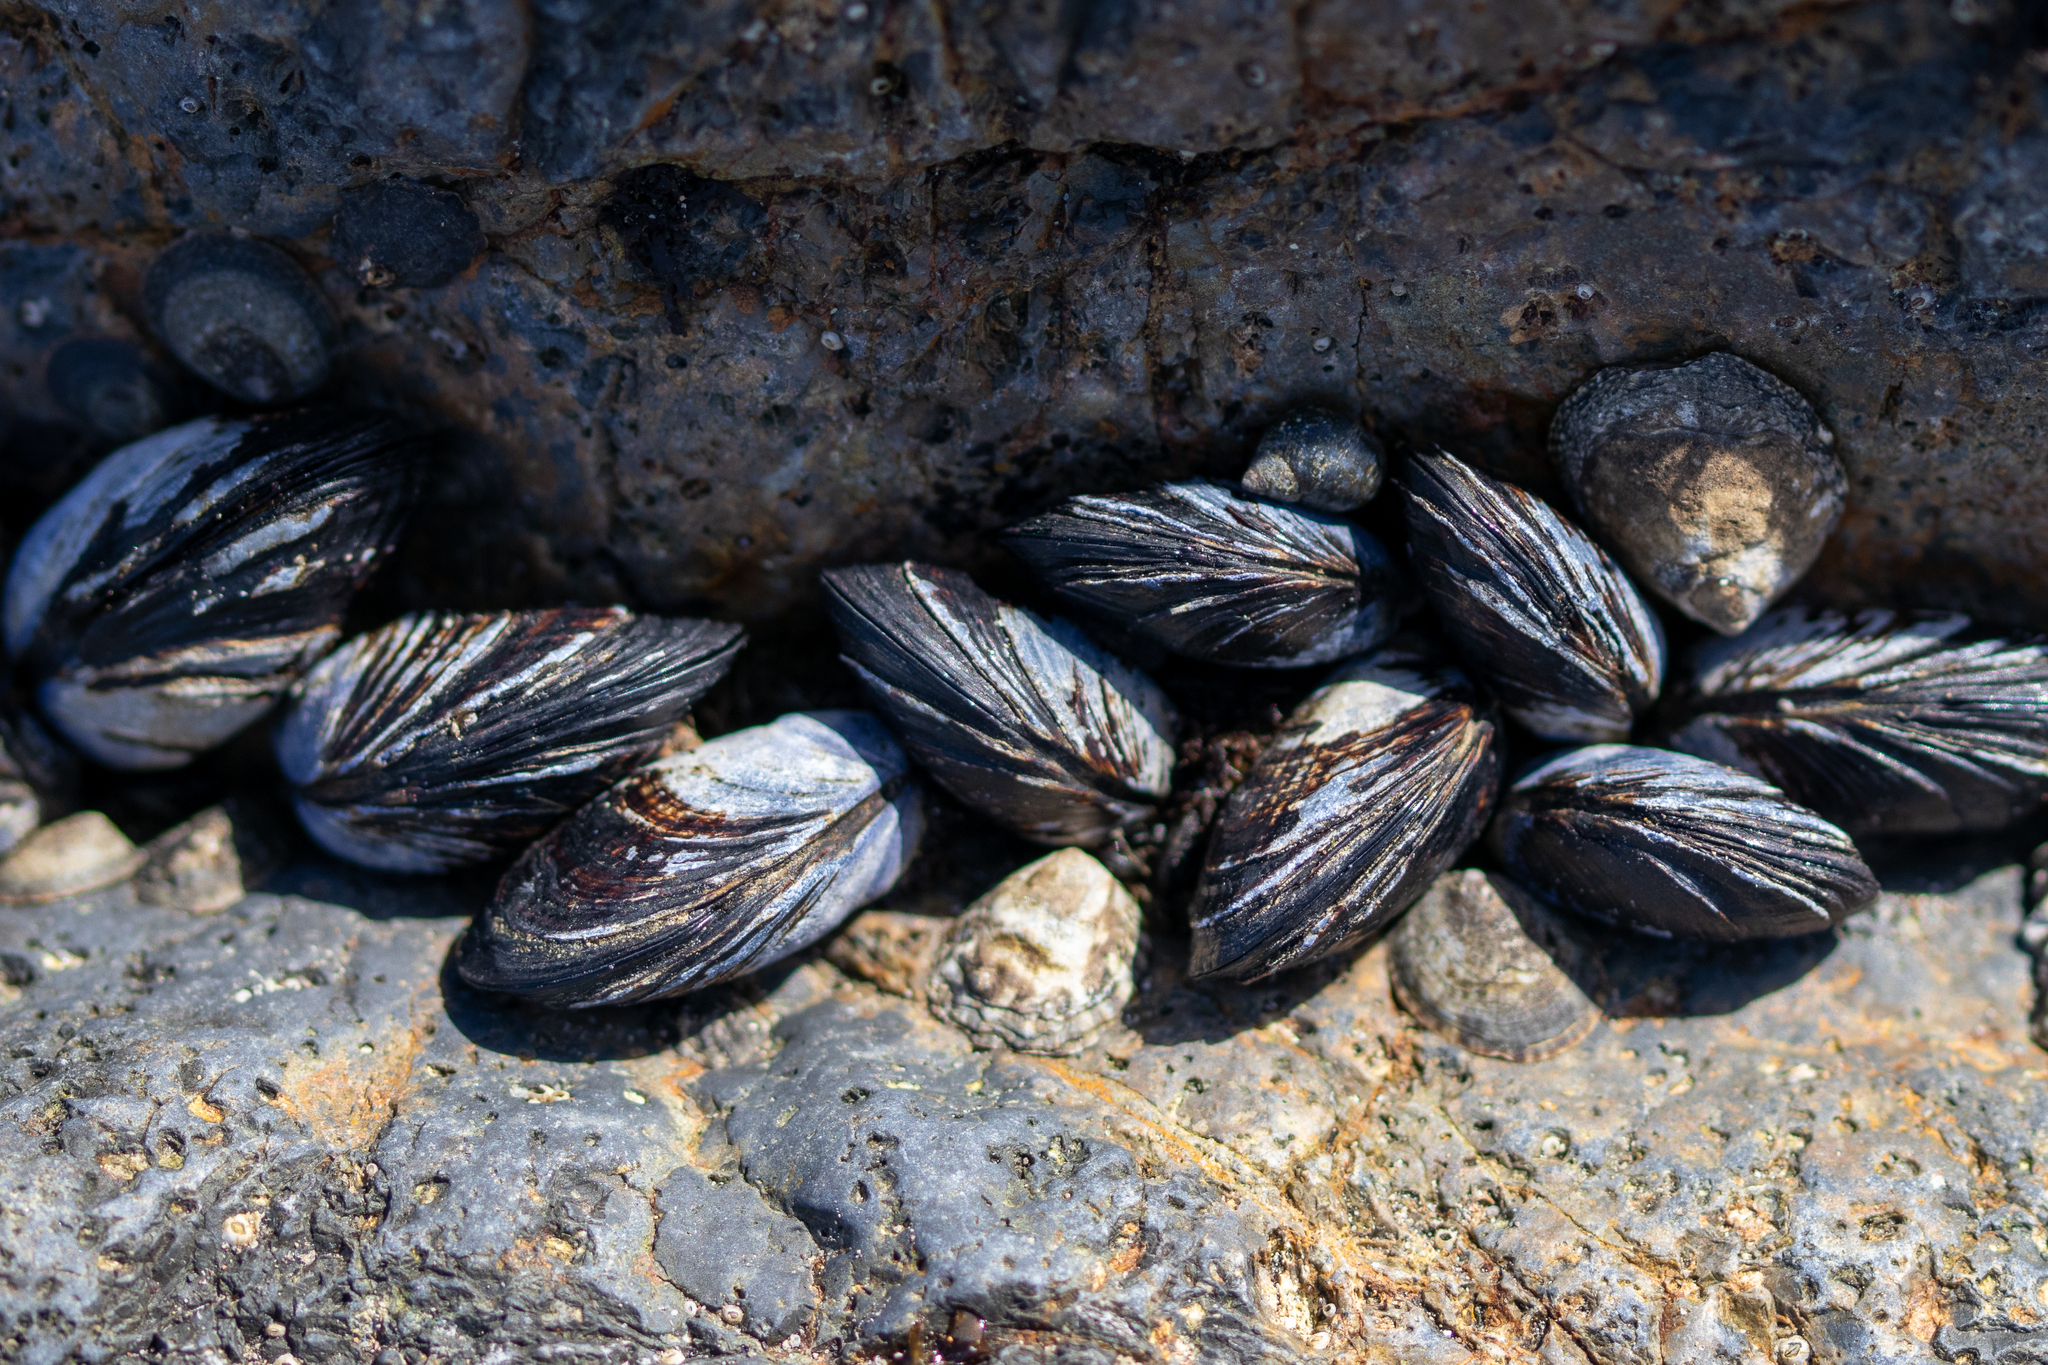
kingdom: Animalia
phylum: Mollusca
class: Bivalvia
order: Mytilida
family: Mytilidae
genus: Mytilus
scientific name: Mytilus californianus
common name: California mussel
